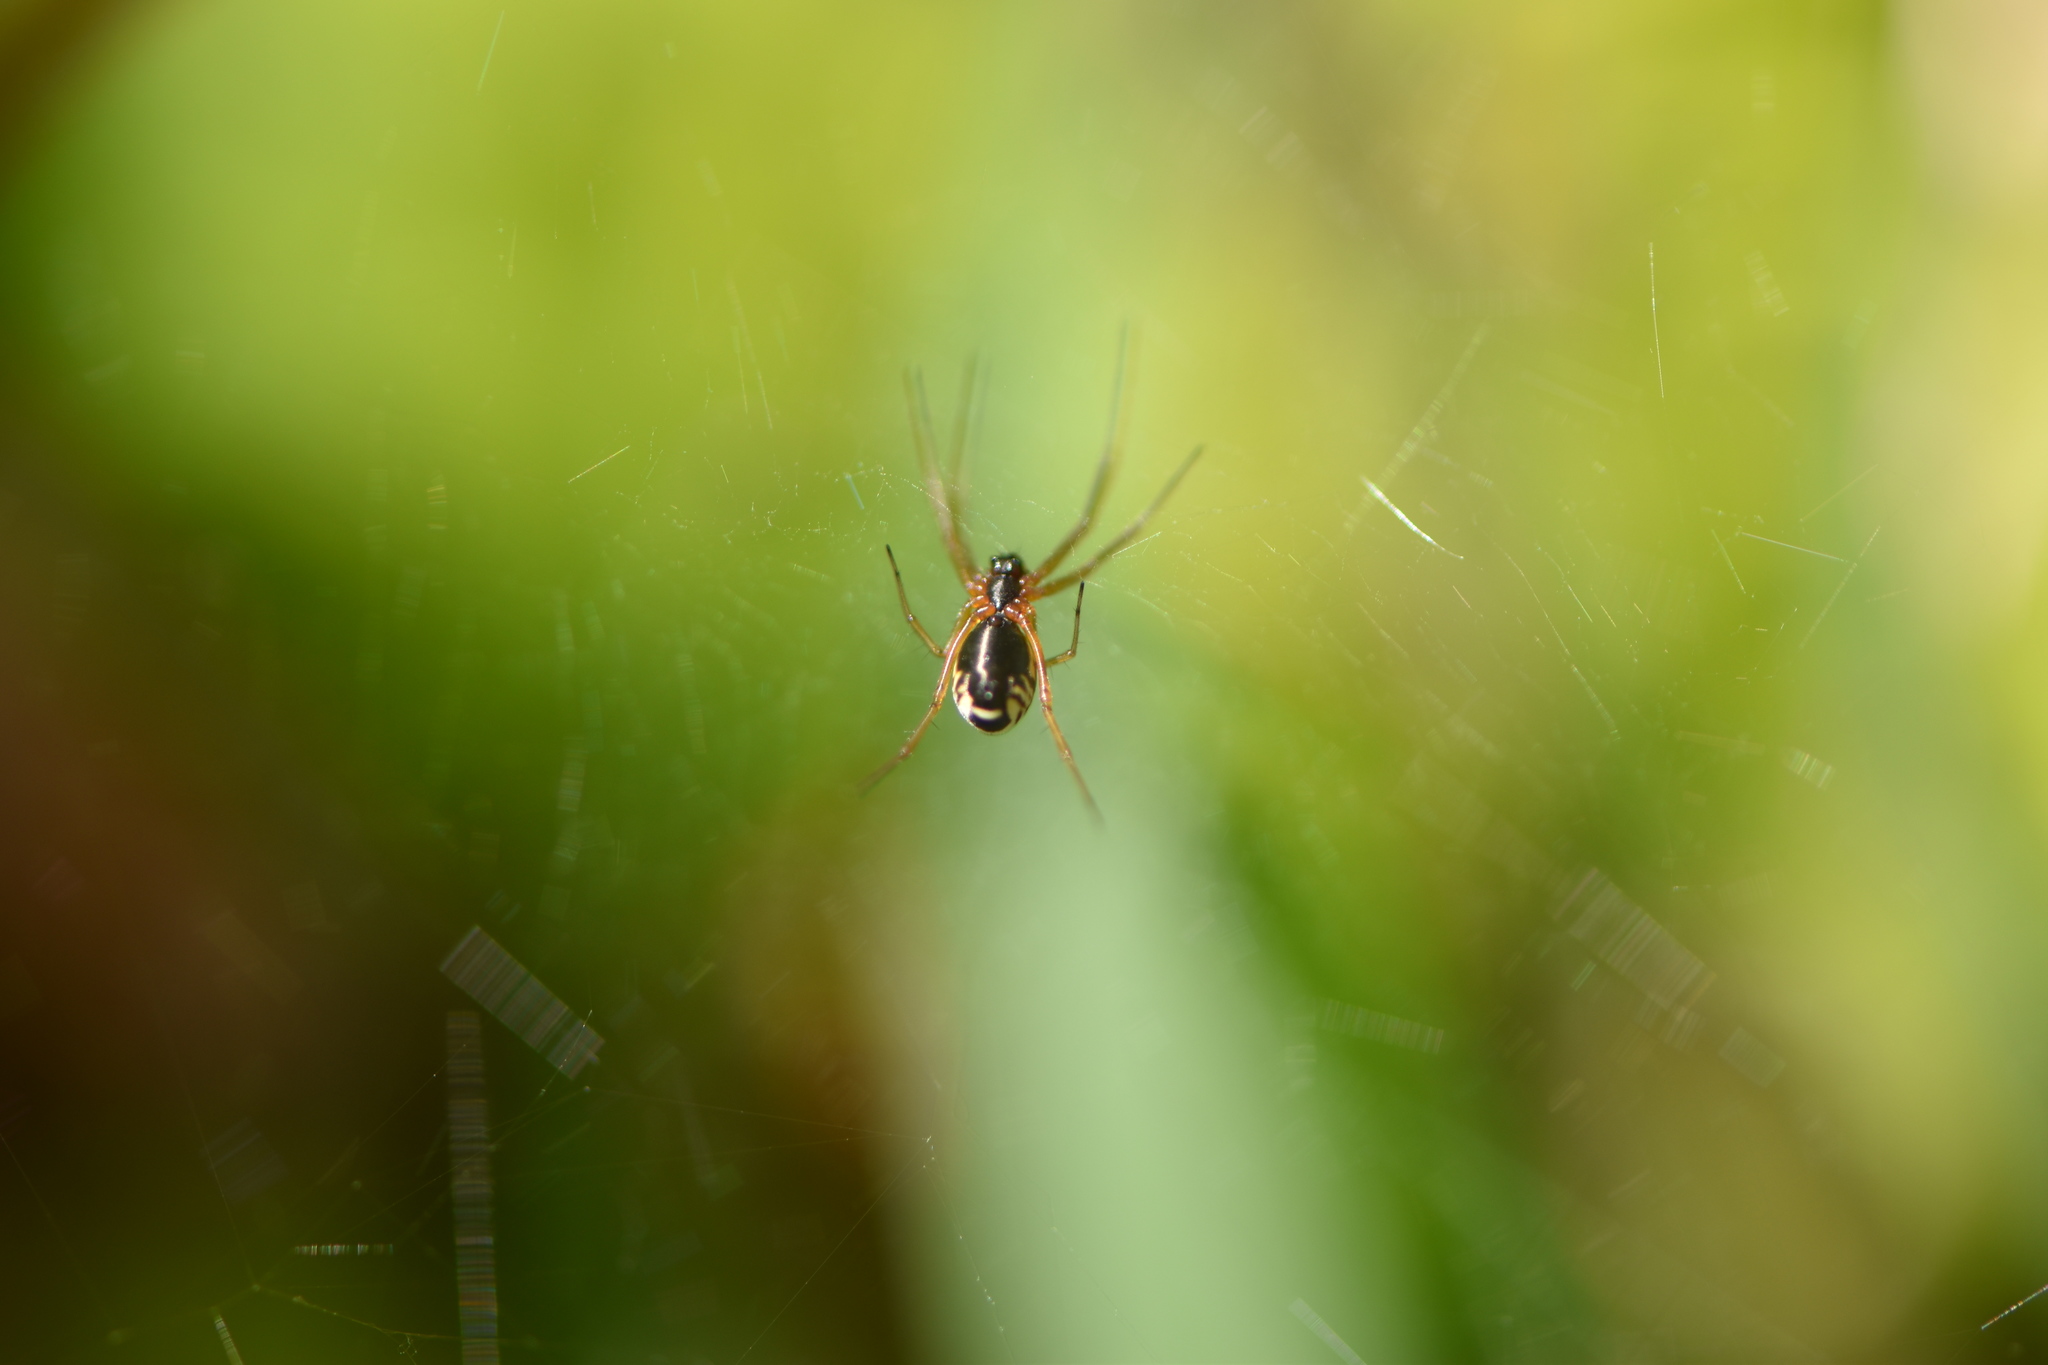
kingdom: Animalia
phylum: Arthropoda
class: Arachnida
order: Araneae
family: Linyphiidae
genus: Frontinellina
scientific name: Frontinellina frutetorum
